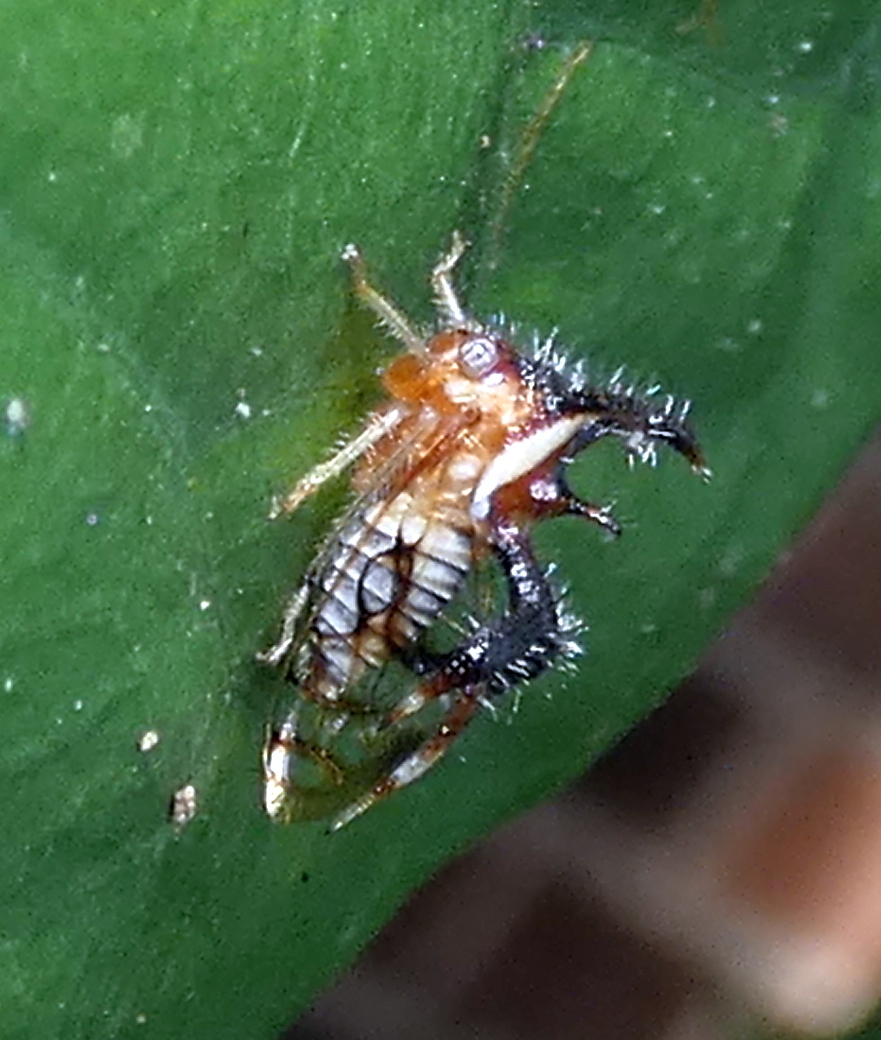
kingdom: Animalia
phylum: Arthropoda
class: Insecta
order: Hemiptera
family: Membracidae
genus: Cyphonia
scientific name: Cyphonia nordestina
